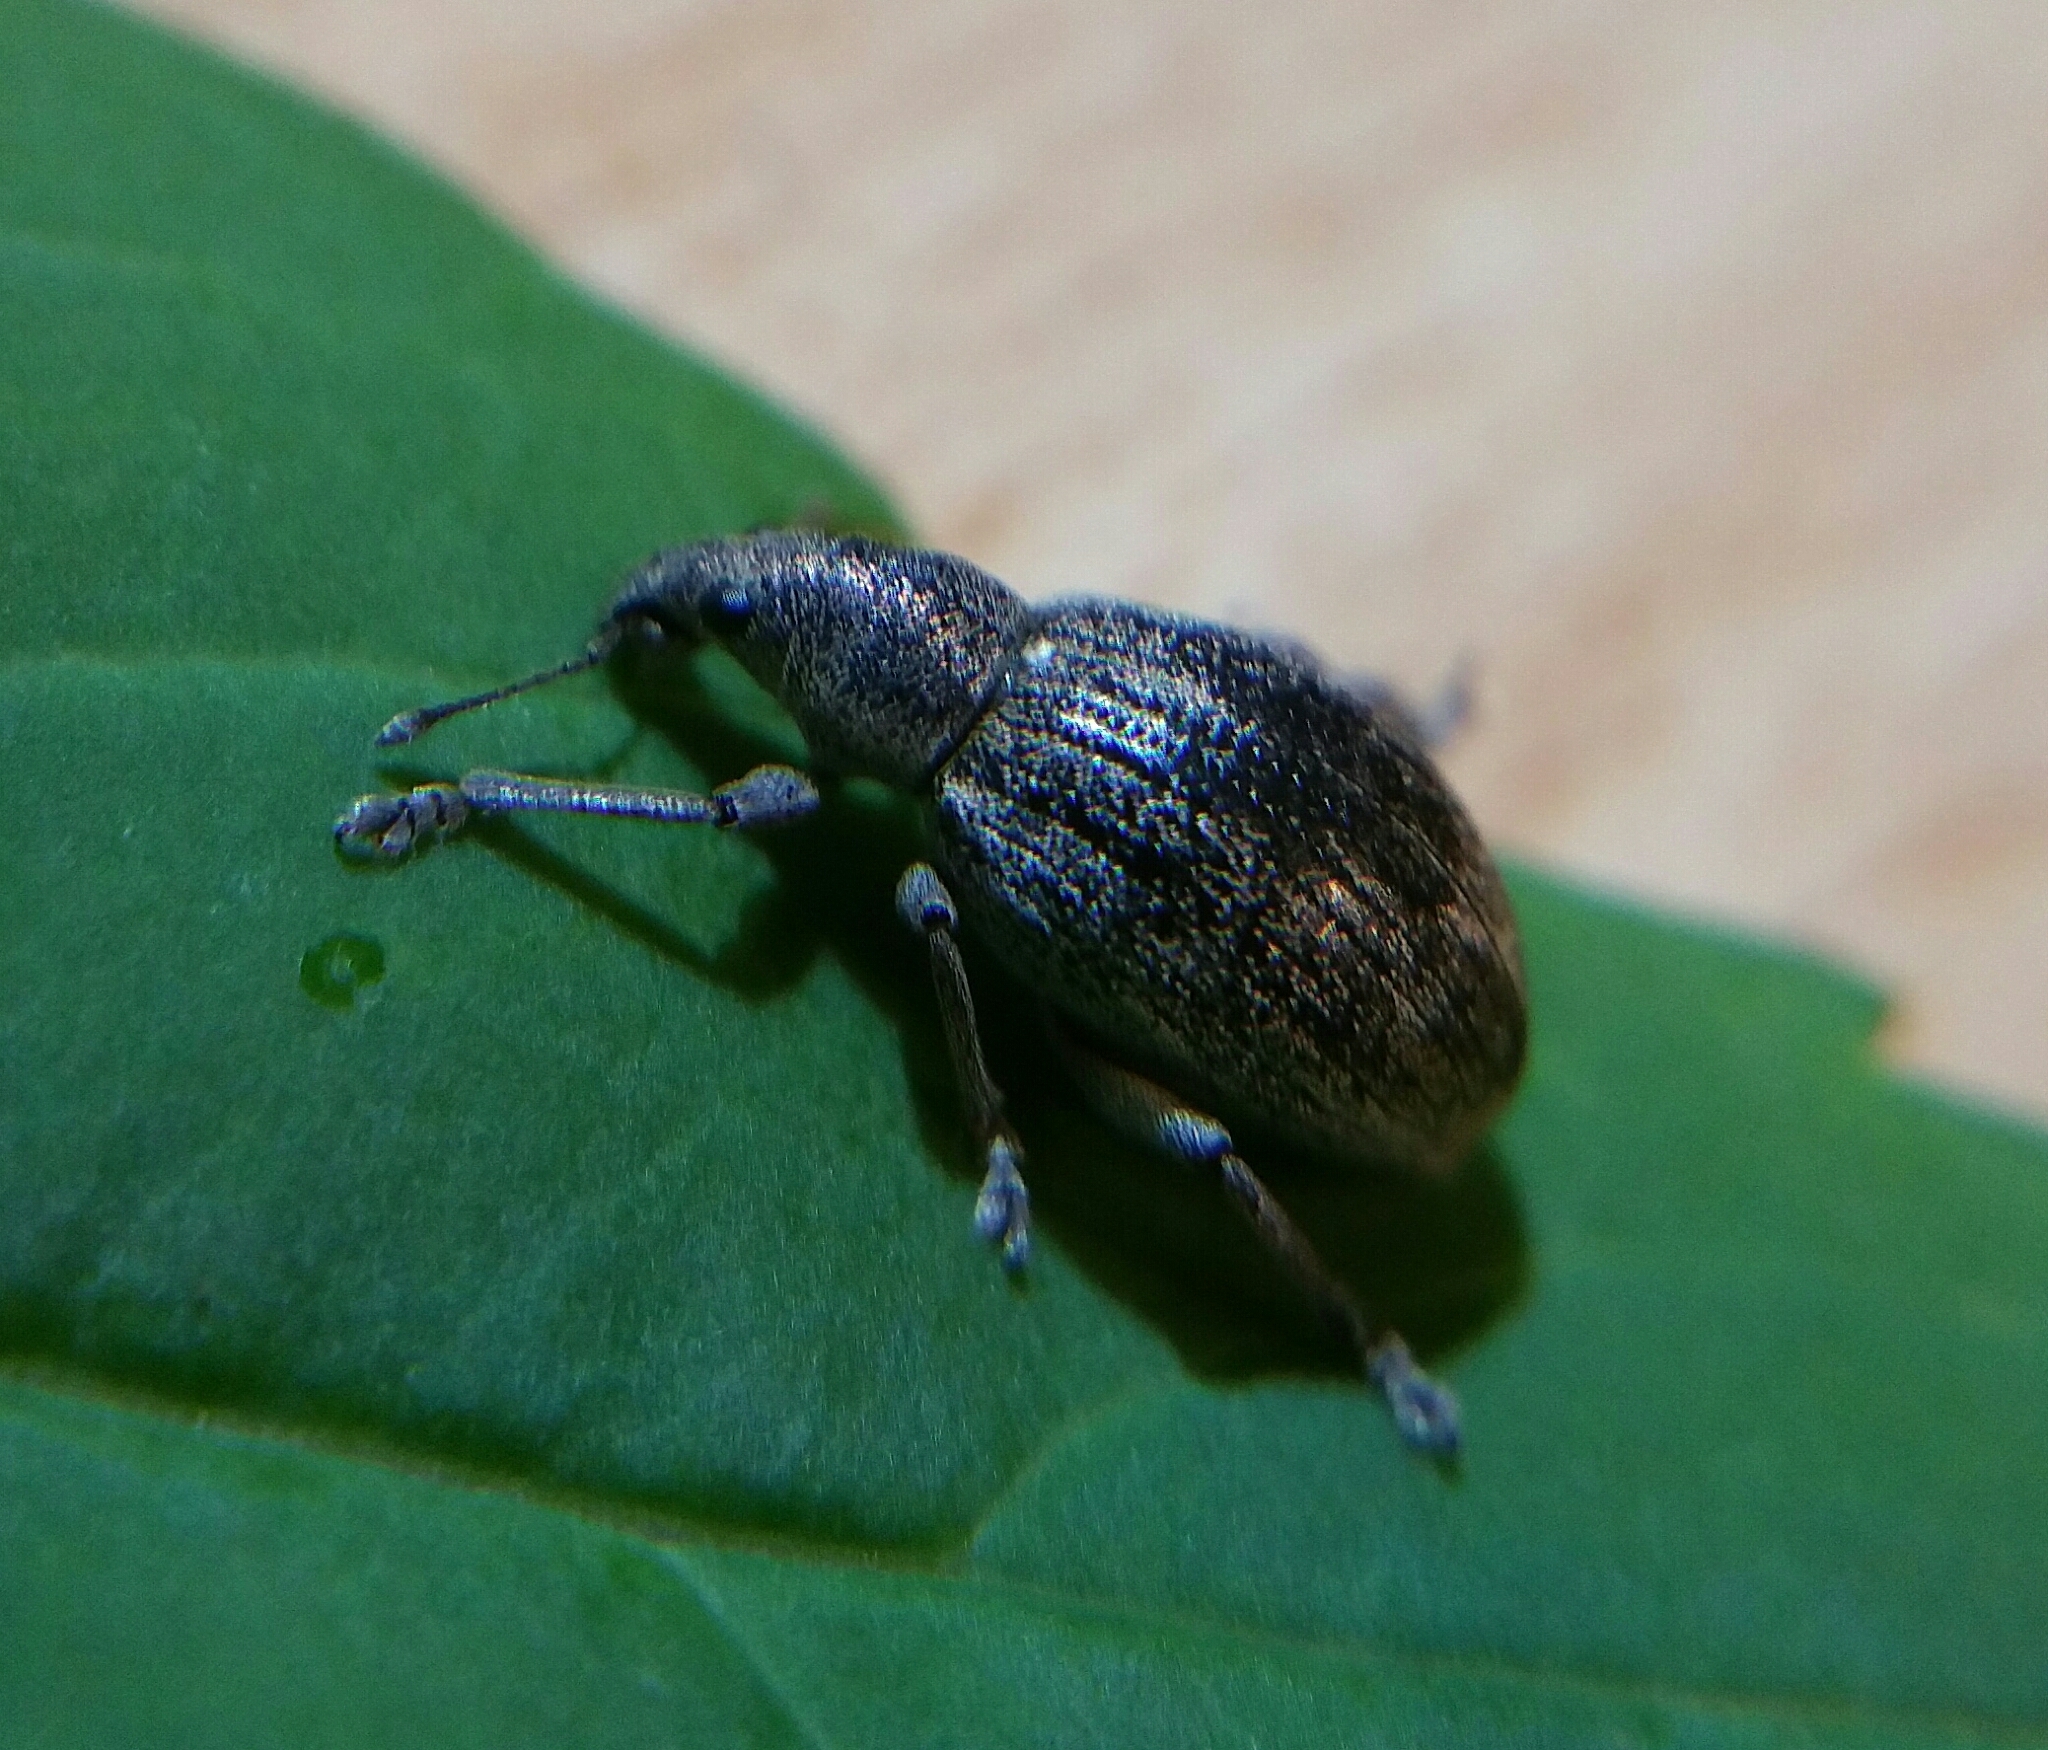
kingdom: Animalia
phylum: Arthropoda
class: Insecta
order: Coleoptera
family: Curculionidae
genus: Sciaphobus
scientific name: Sciaphobus squalidus
